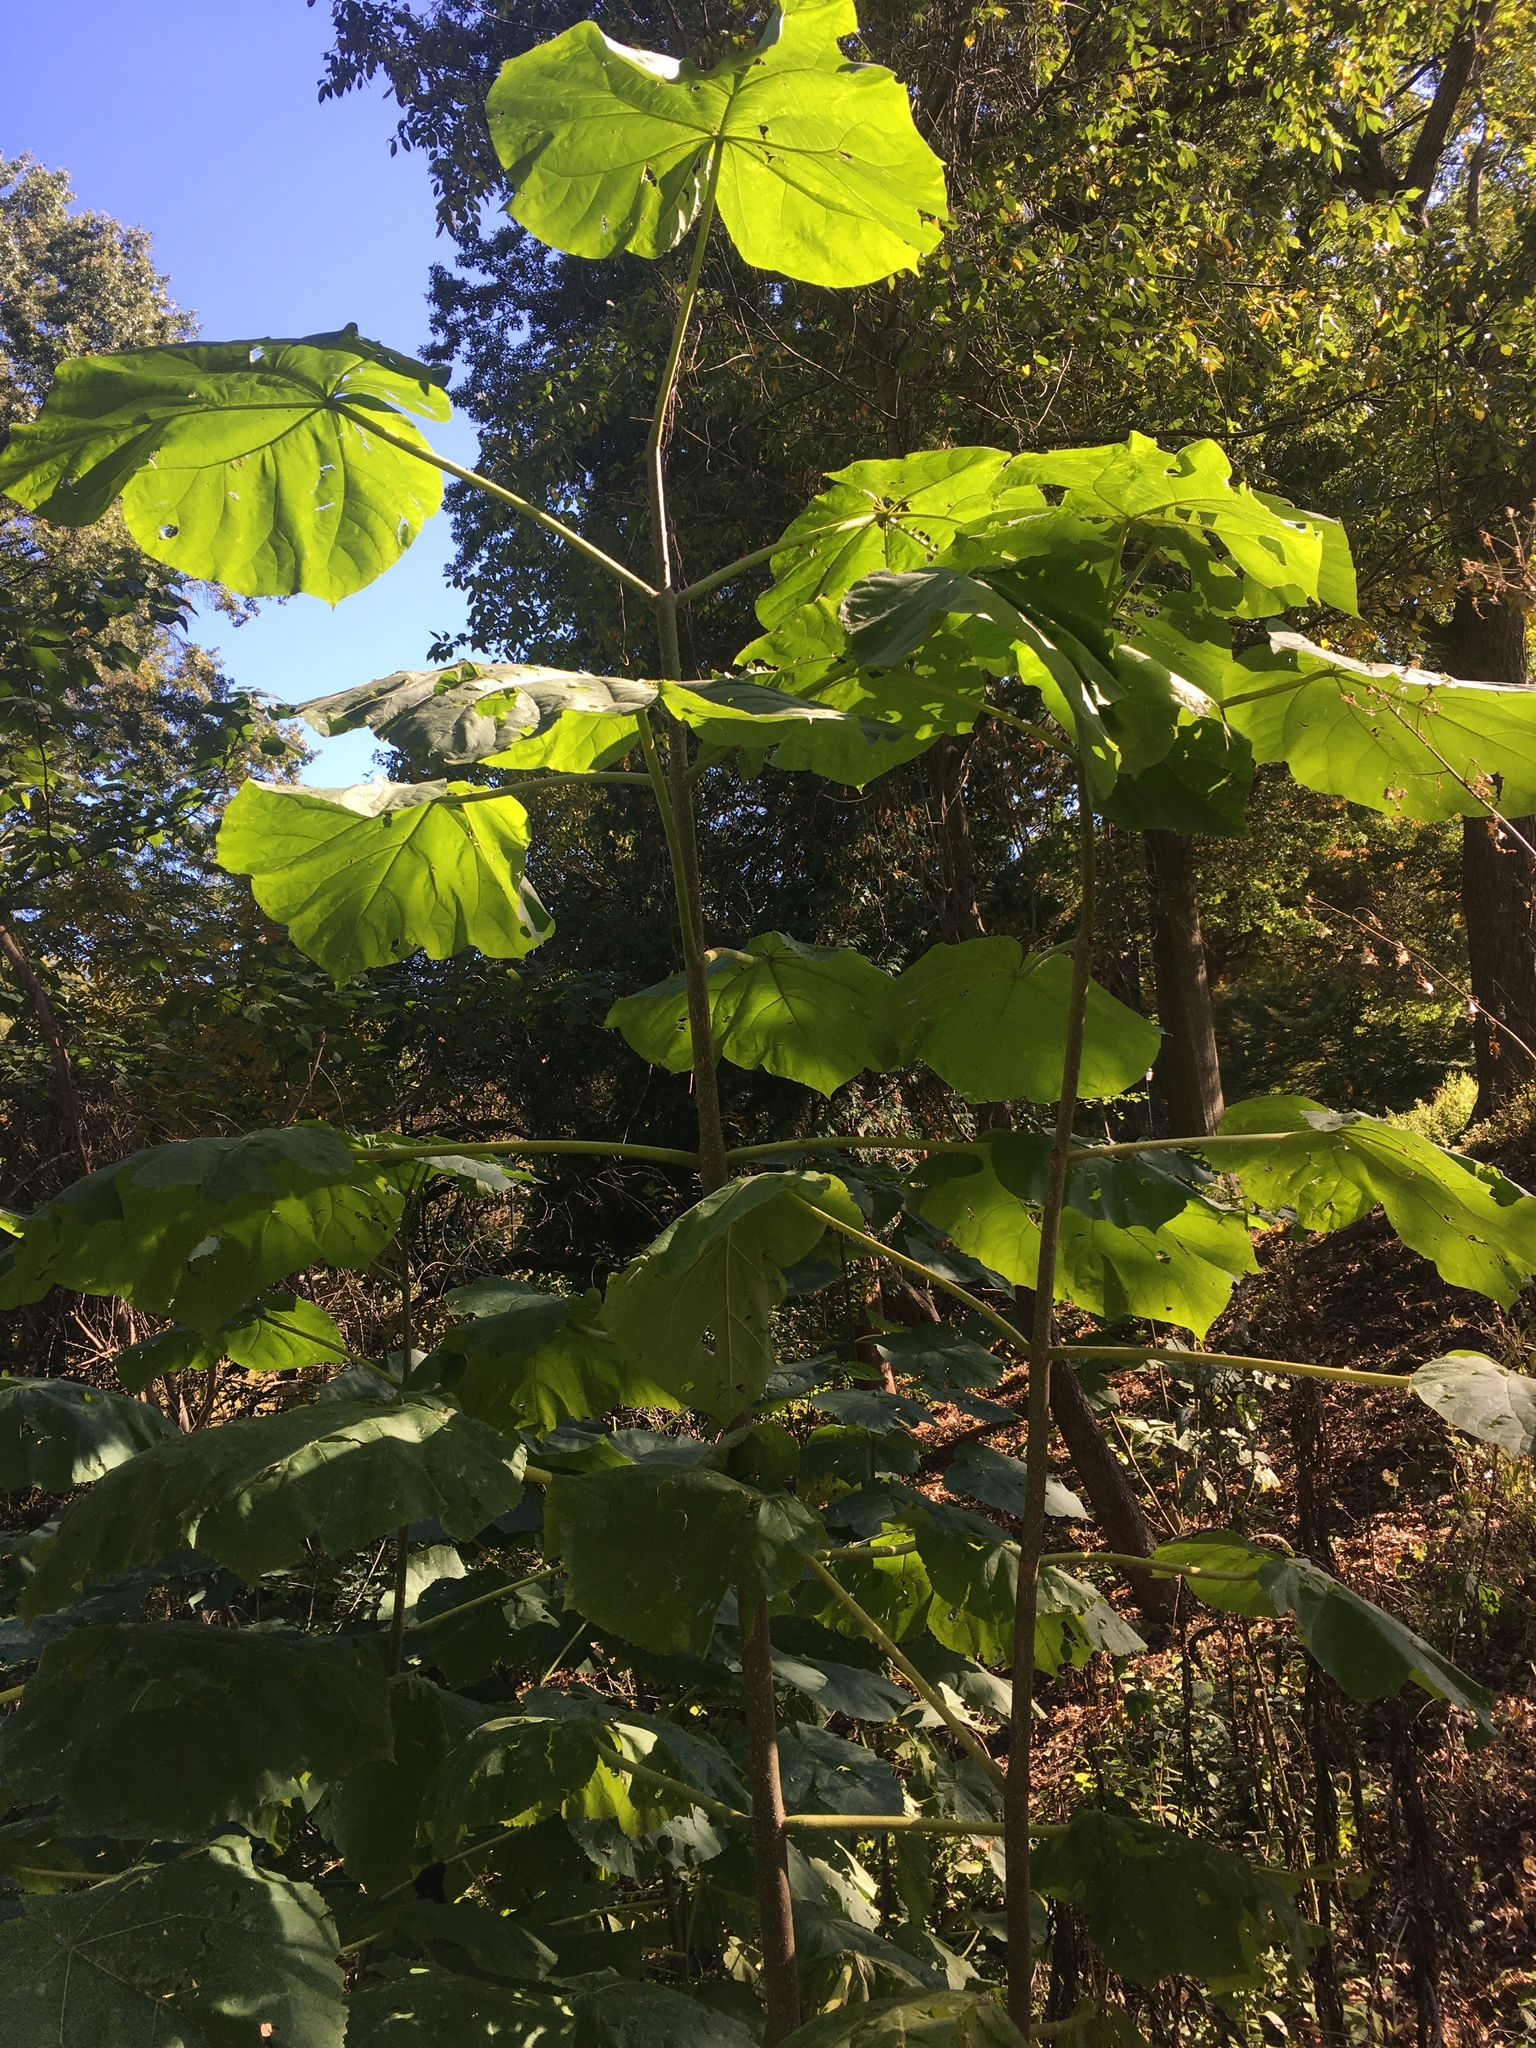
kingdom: Plantae
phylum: Tracheophyta
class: Magnoliopsida
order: Lamiales
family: Paulowniaceae
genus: Paulownia
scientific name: Paulownia tomentosa
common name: Foxglove-tree
